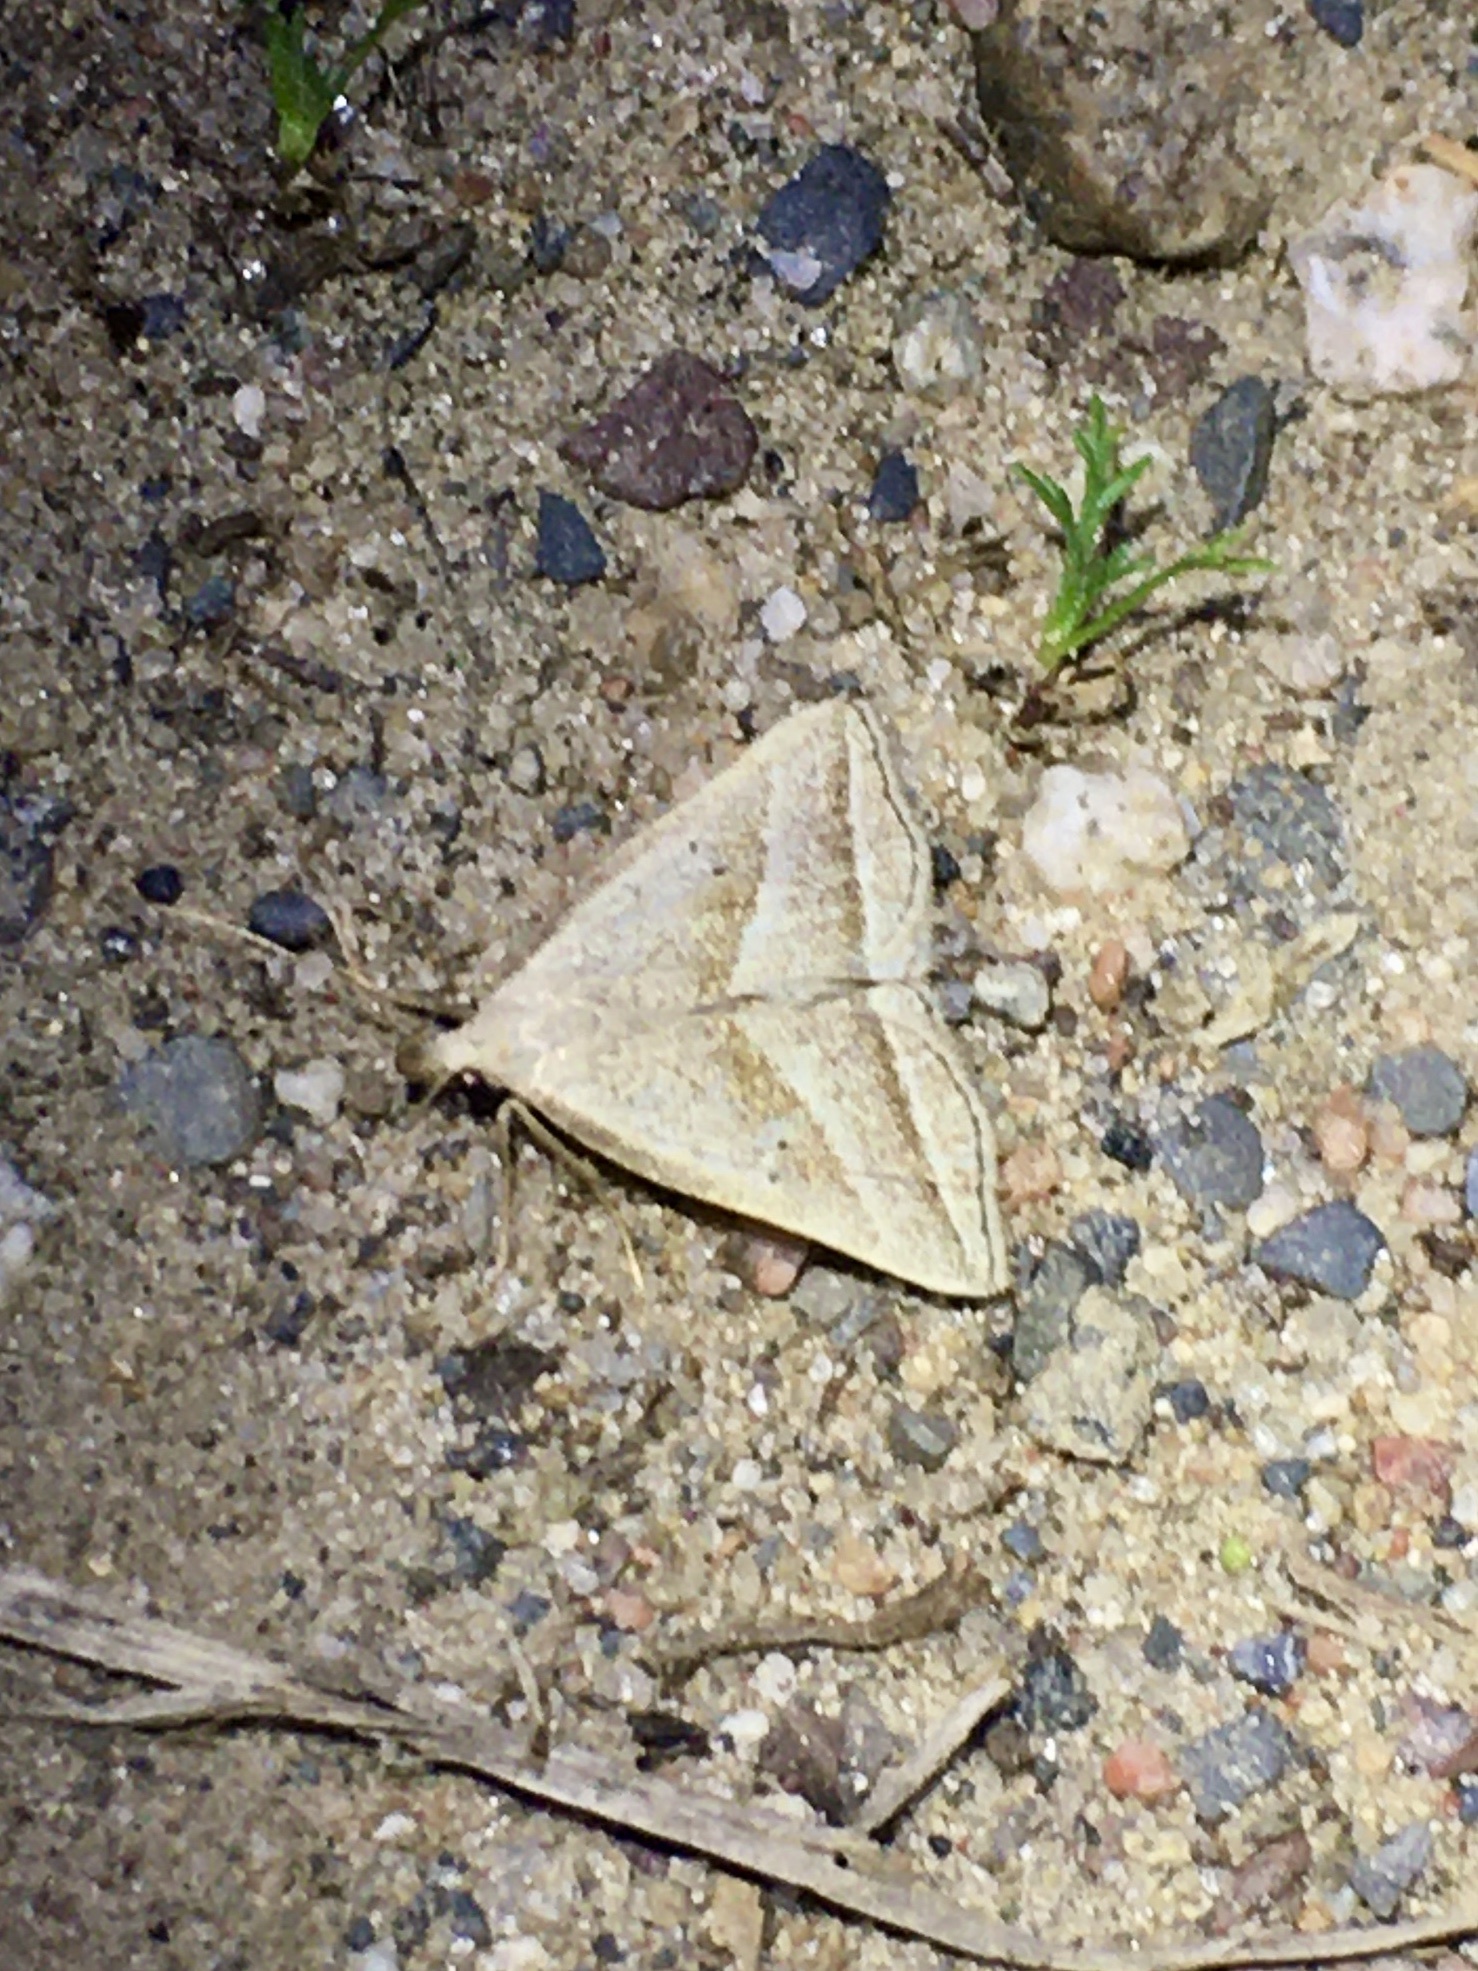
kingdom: Animalia
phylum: Arthropoda
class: Insecta
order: Lepidoptera
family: Erebidae
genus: Macrochilo
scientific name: Macrochilo absorptalis
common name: Slant-lined owlet
